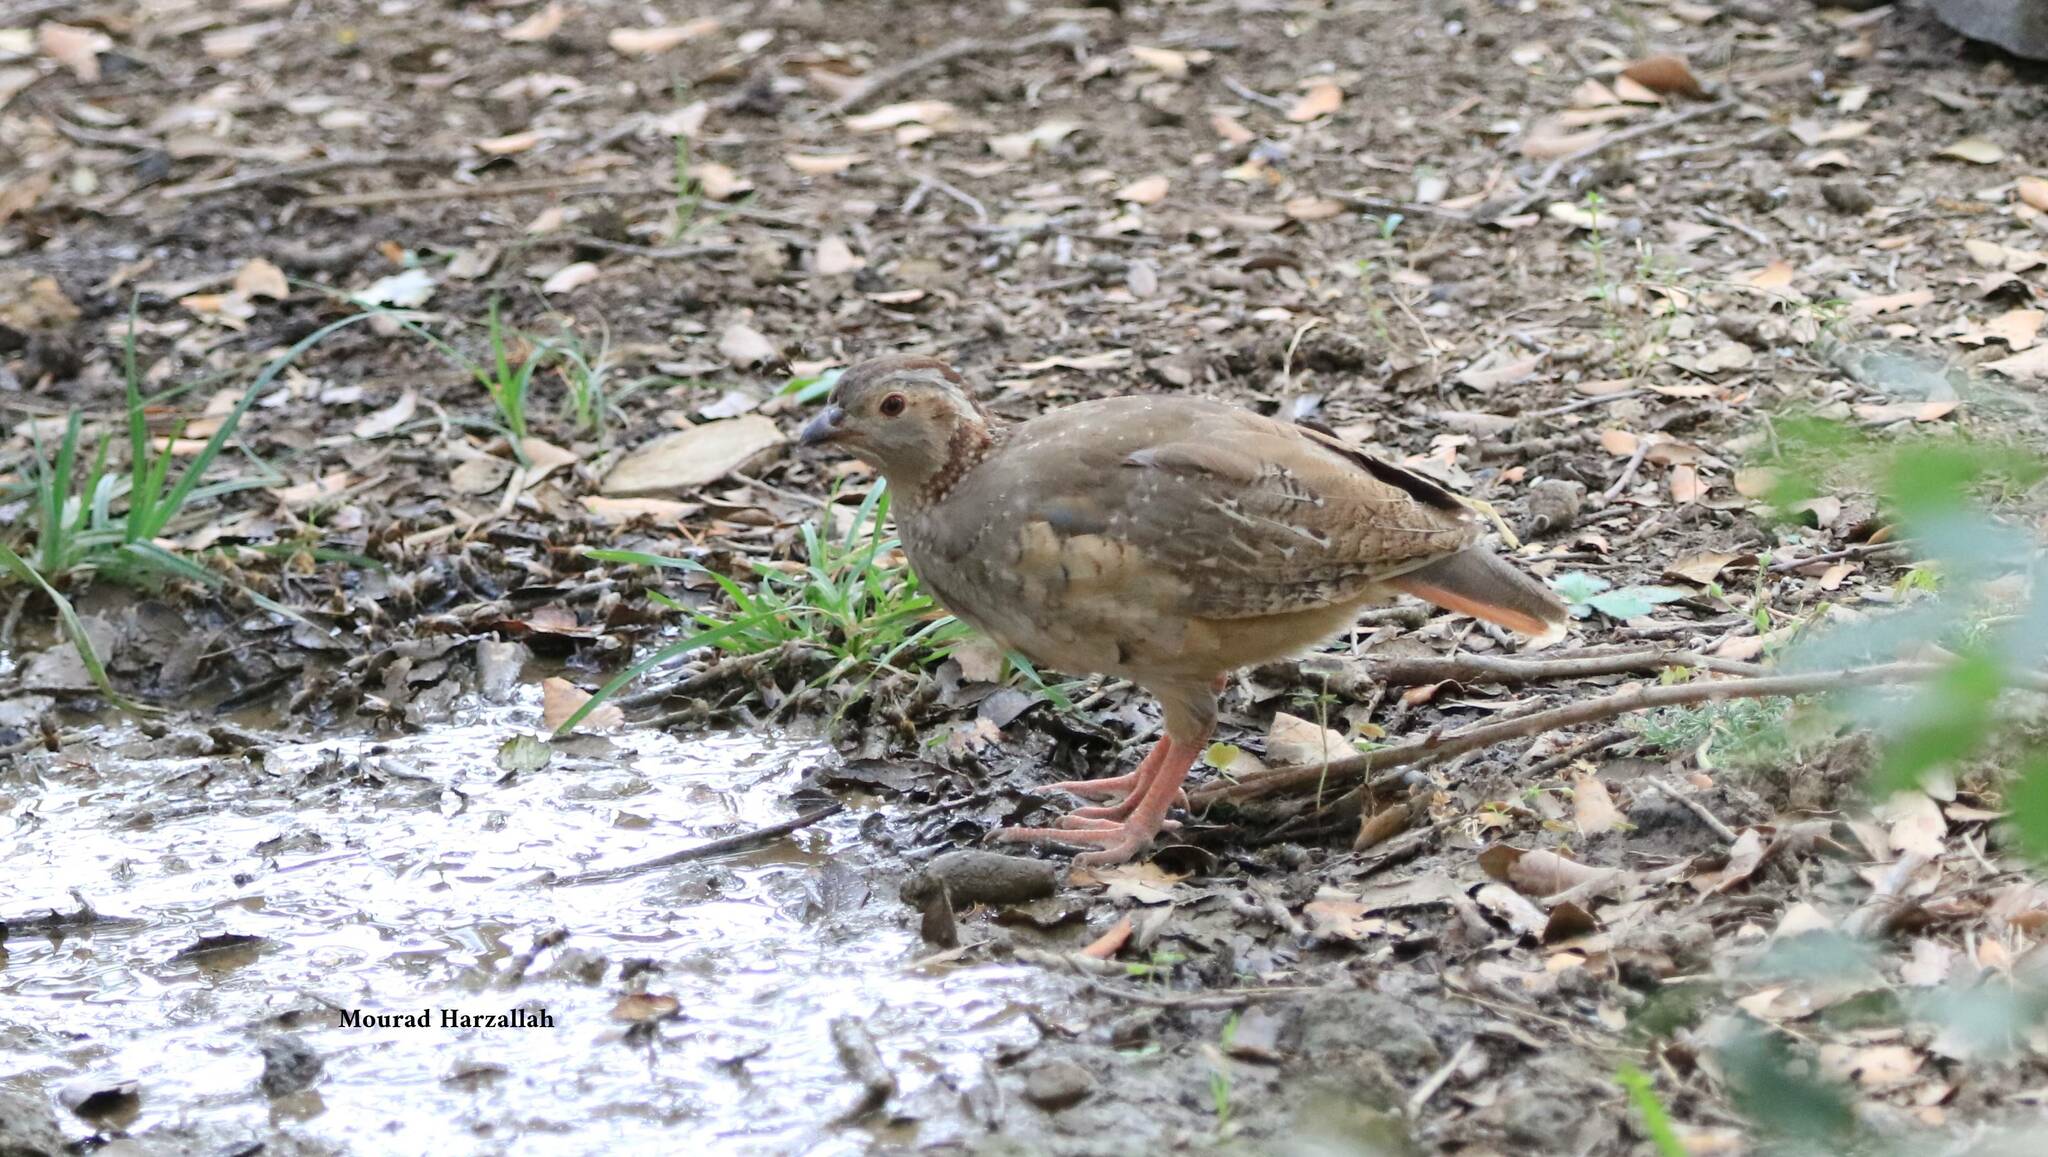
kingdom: Animalia
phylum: Chordata
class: Aves
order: Galliformes
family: Phasianidae
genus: Alectoris
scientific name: Alectoris barbara
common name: Barbary partridge
